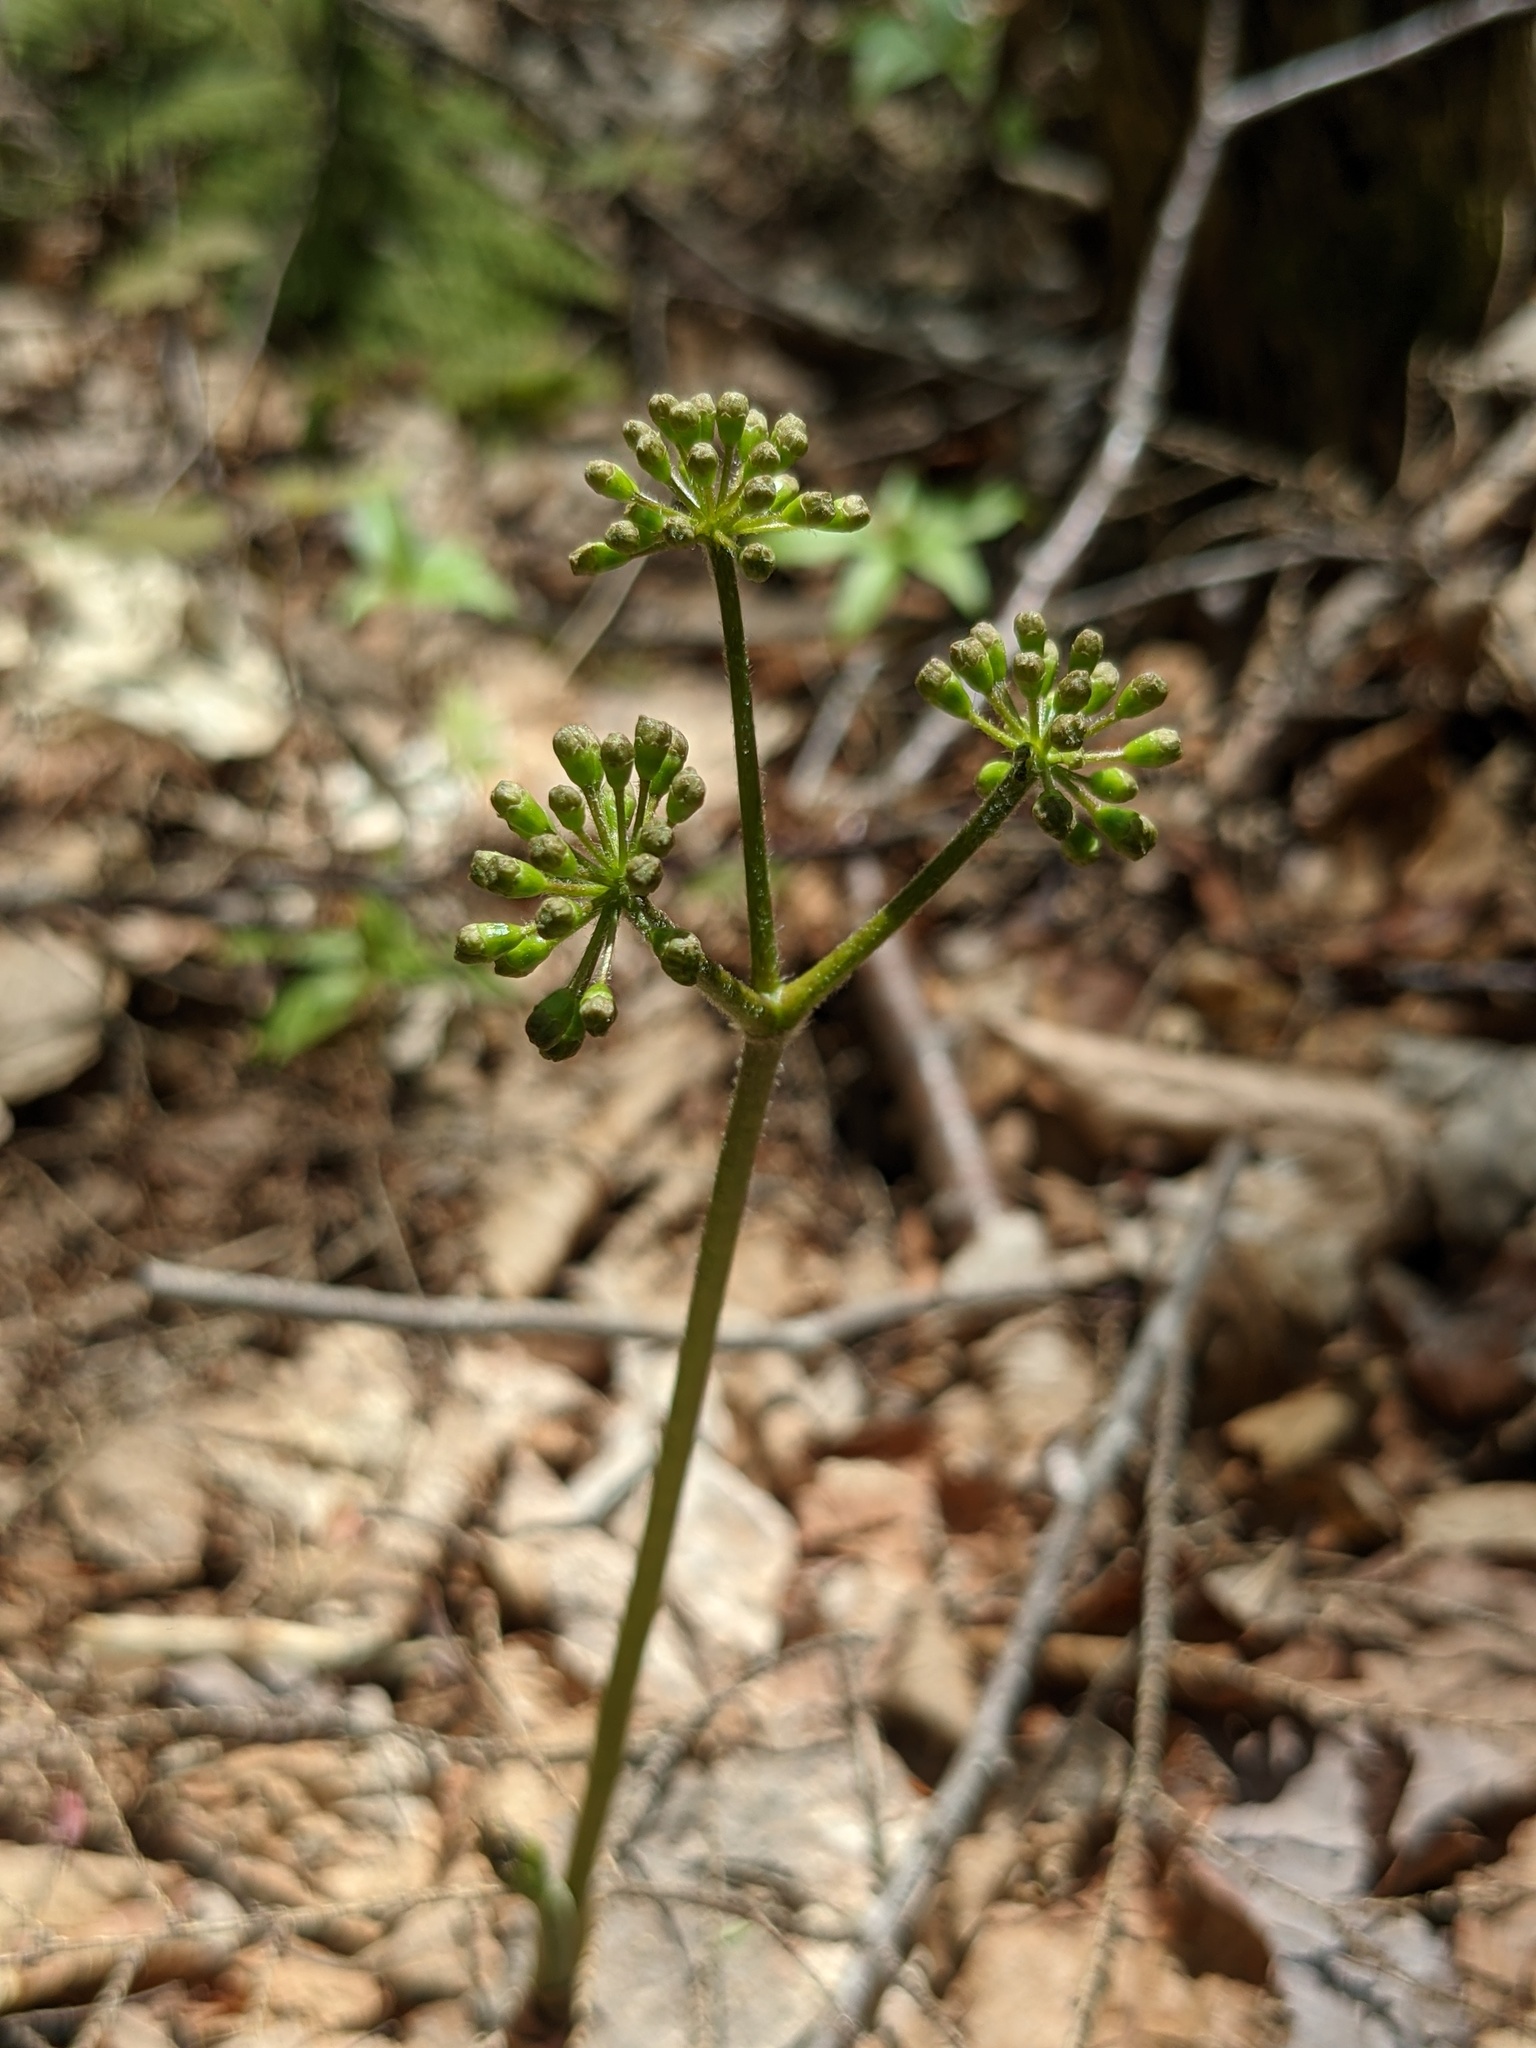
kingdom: Plantae
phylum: Tracheophyta
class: Magnoliopsida
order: Apiales
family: Araliaceae
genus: Aralia
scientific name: Aralia nudicaulis
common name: Wild sarsaparilla
